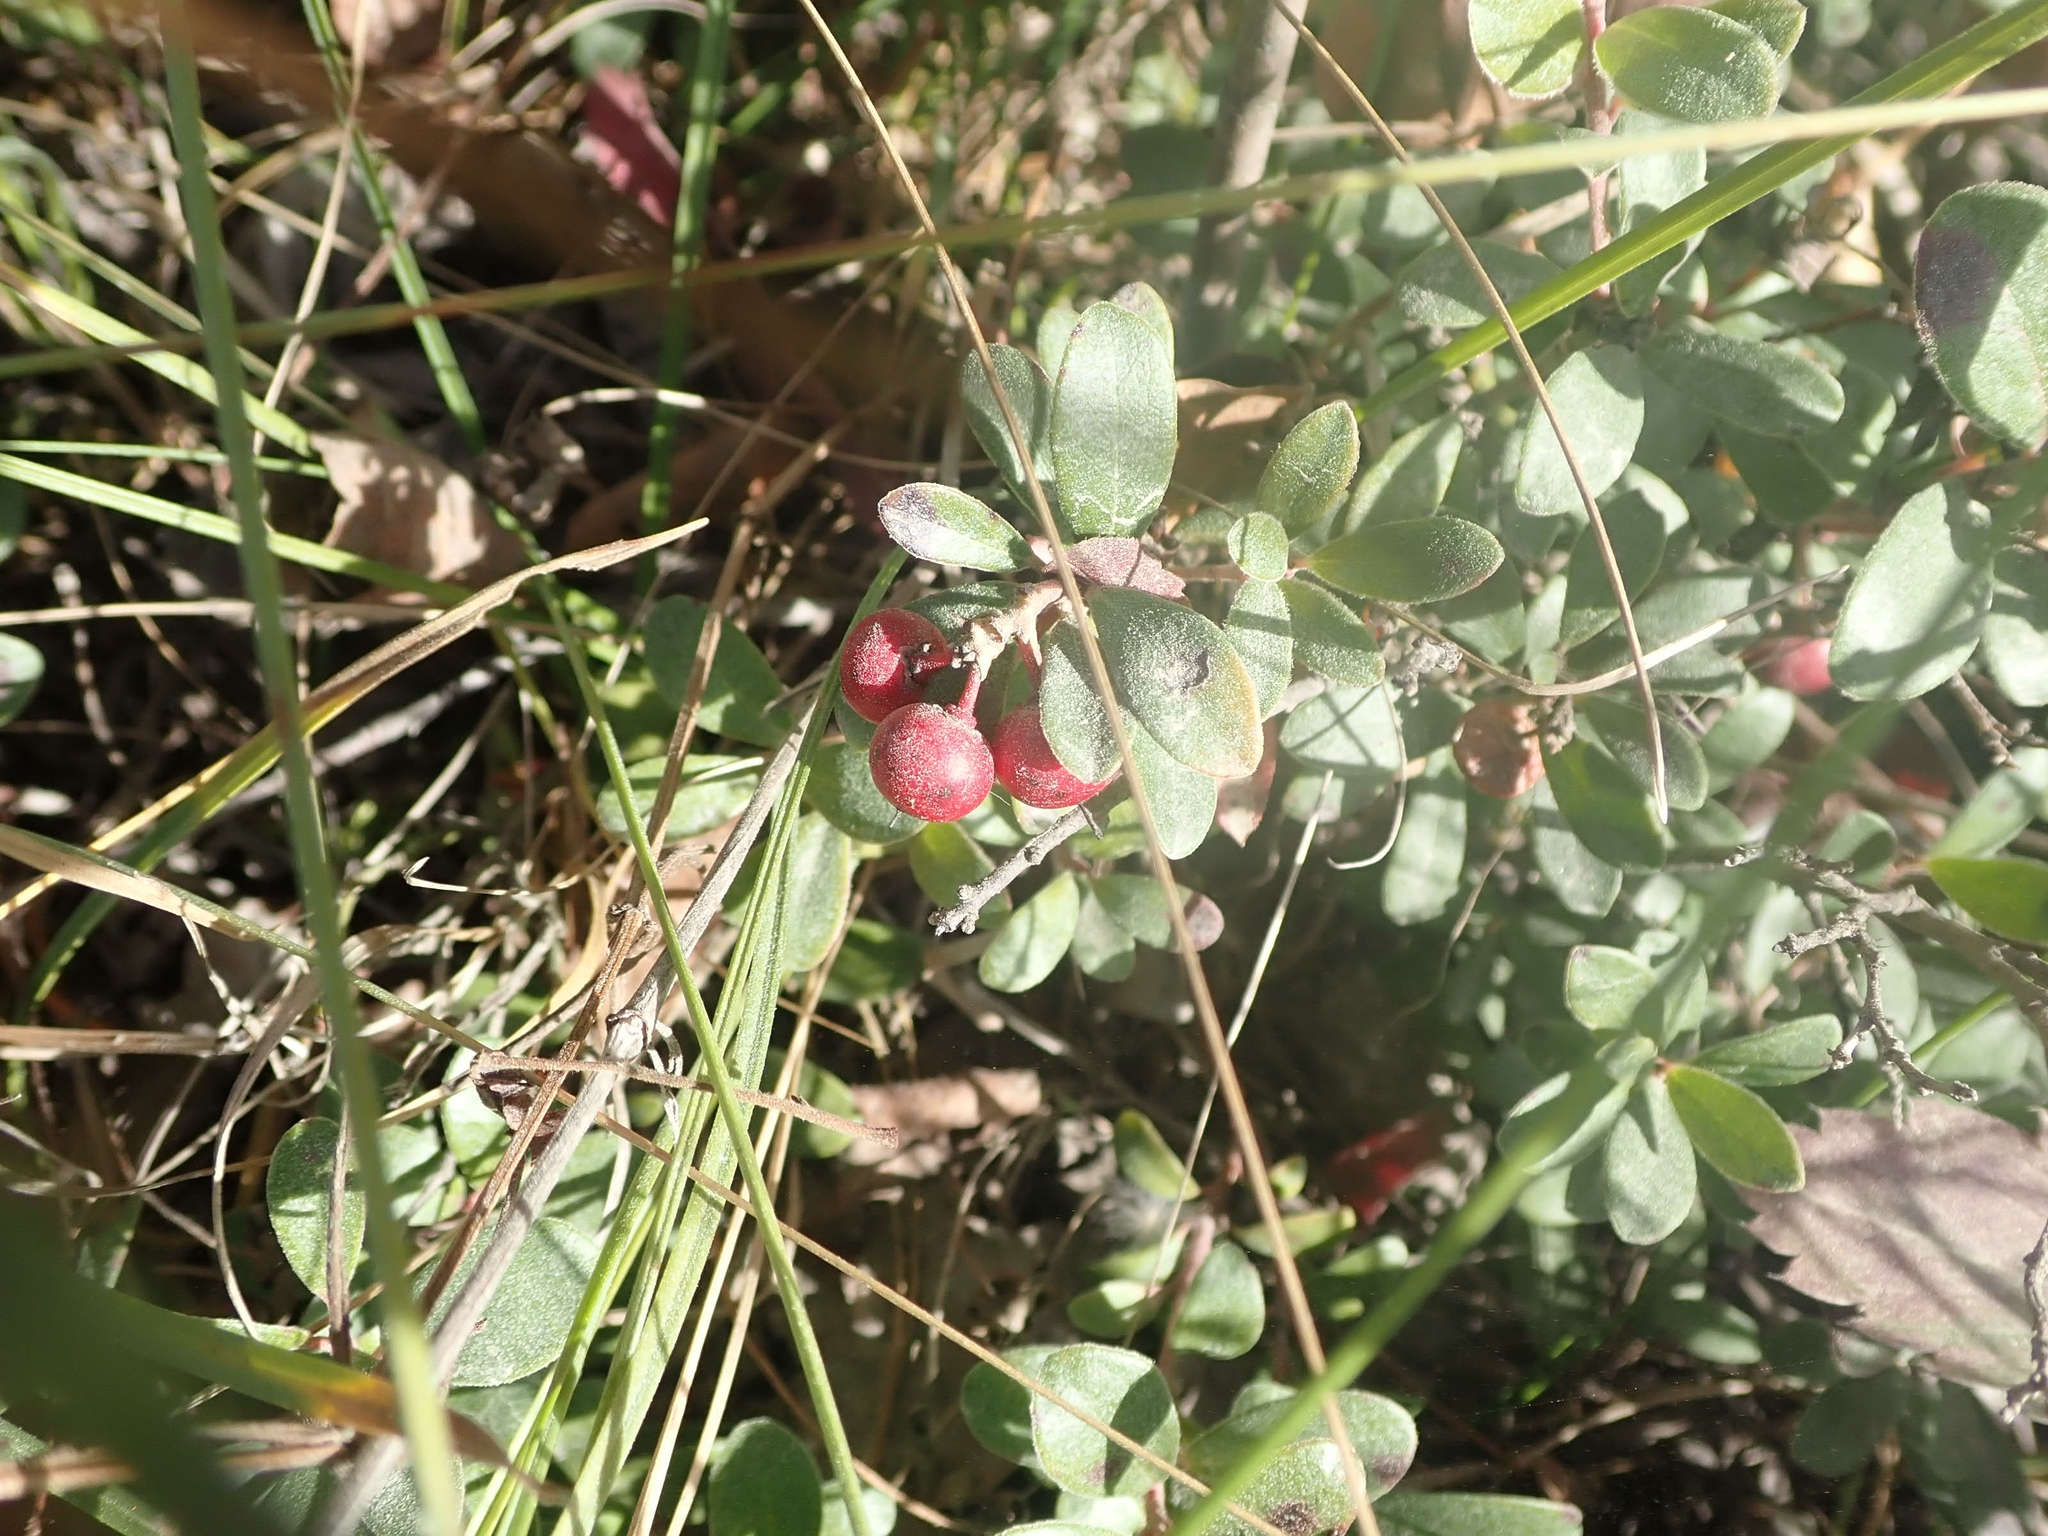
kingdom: Plantae
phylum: Tracheophyta
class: Magnoliopsida
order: Ericales
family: Ericaceae
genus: Arctostaphylos
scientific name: Arctostaphylos uva-ursi
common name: Bearberry
